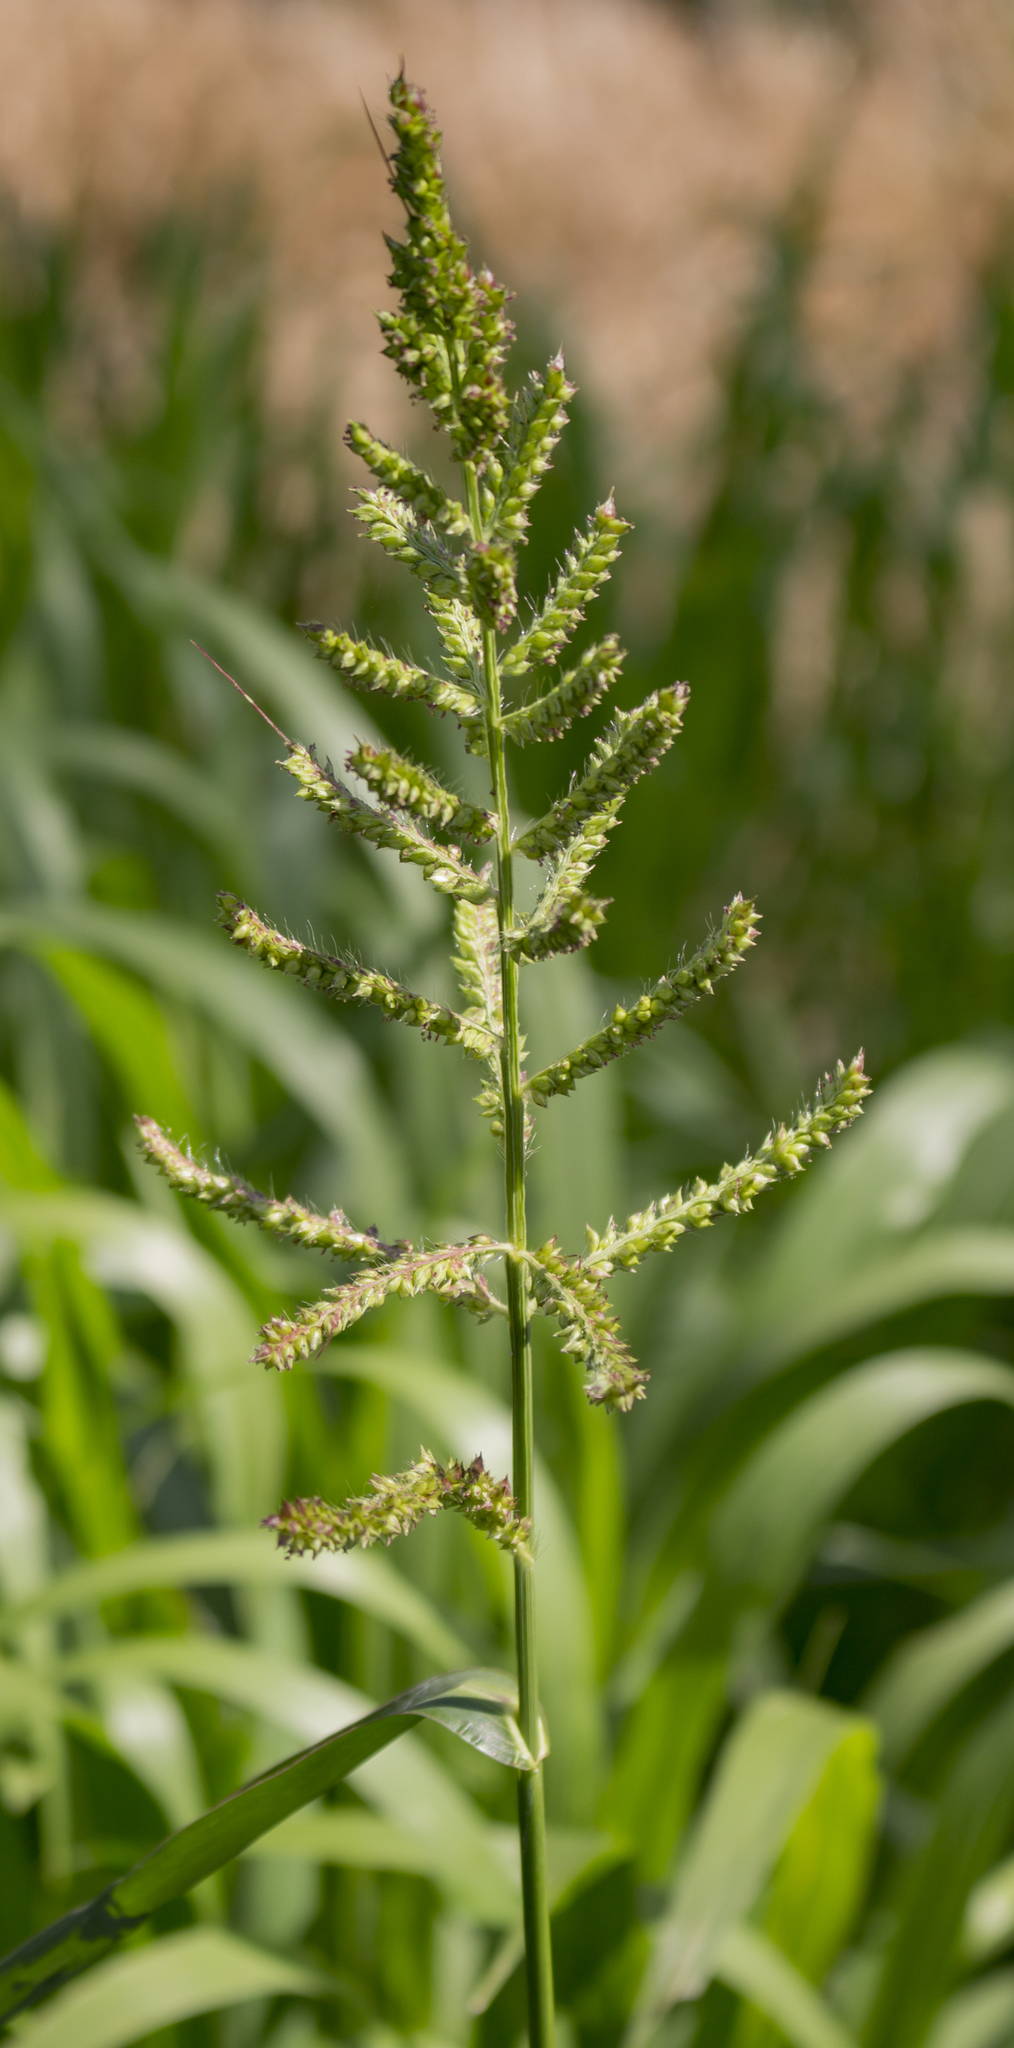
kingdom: Plantae
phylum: Tracheophyta
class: Liliopsida
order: Poales
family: Poaceae
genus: Echinochloa
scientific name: Echinochloa crus-galli
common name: Cockspur
